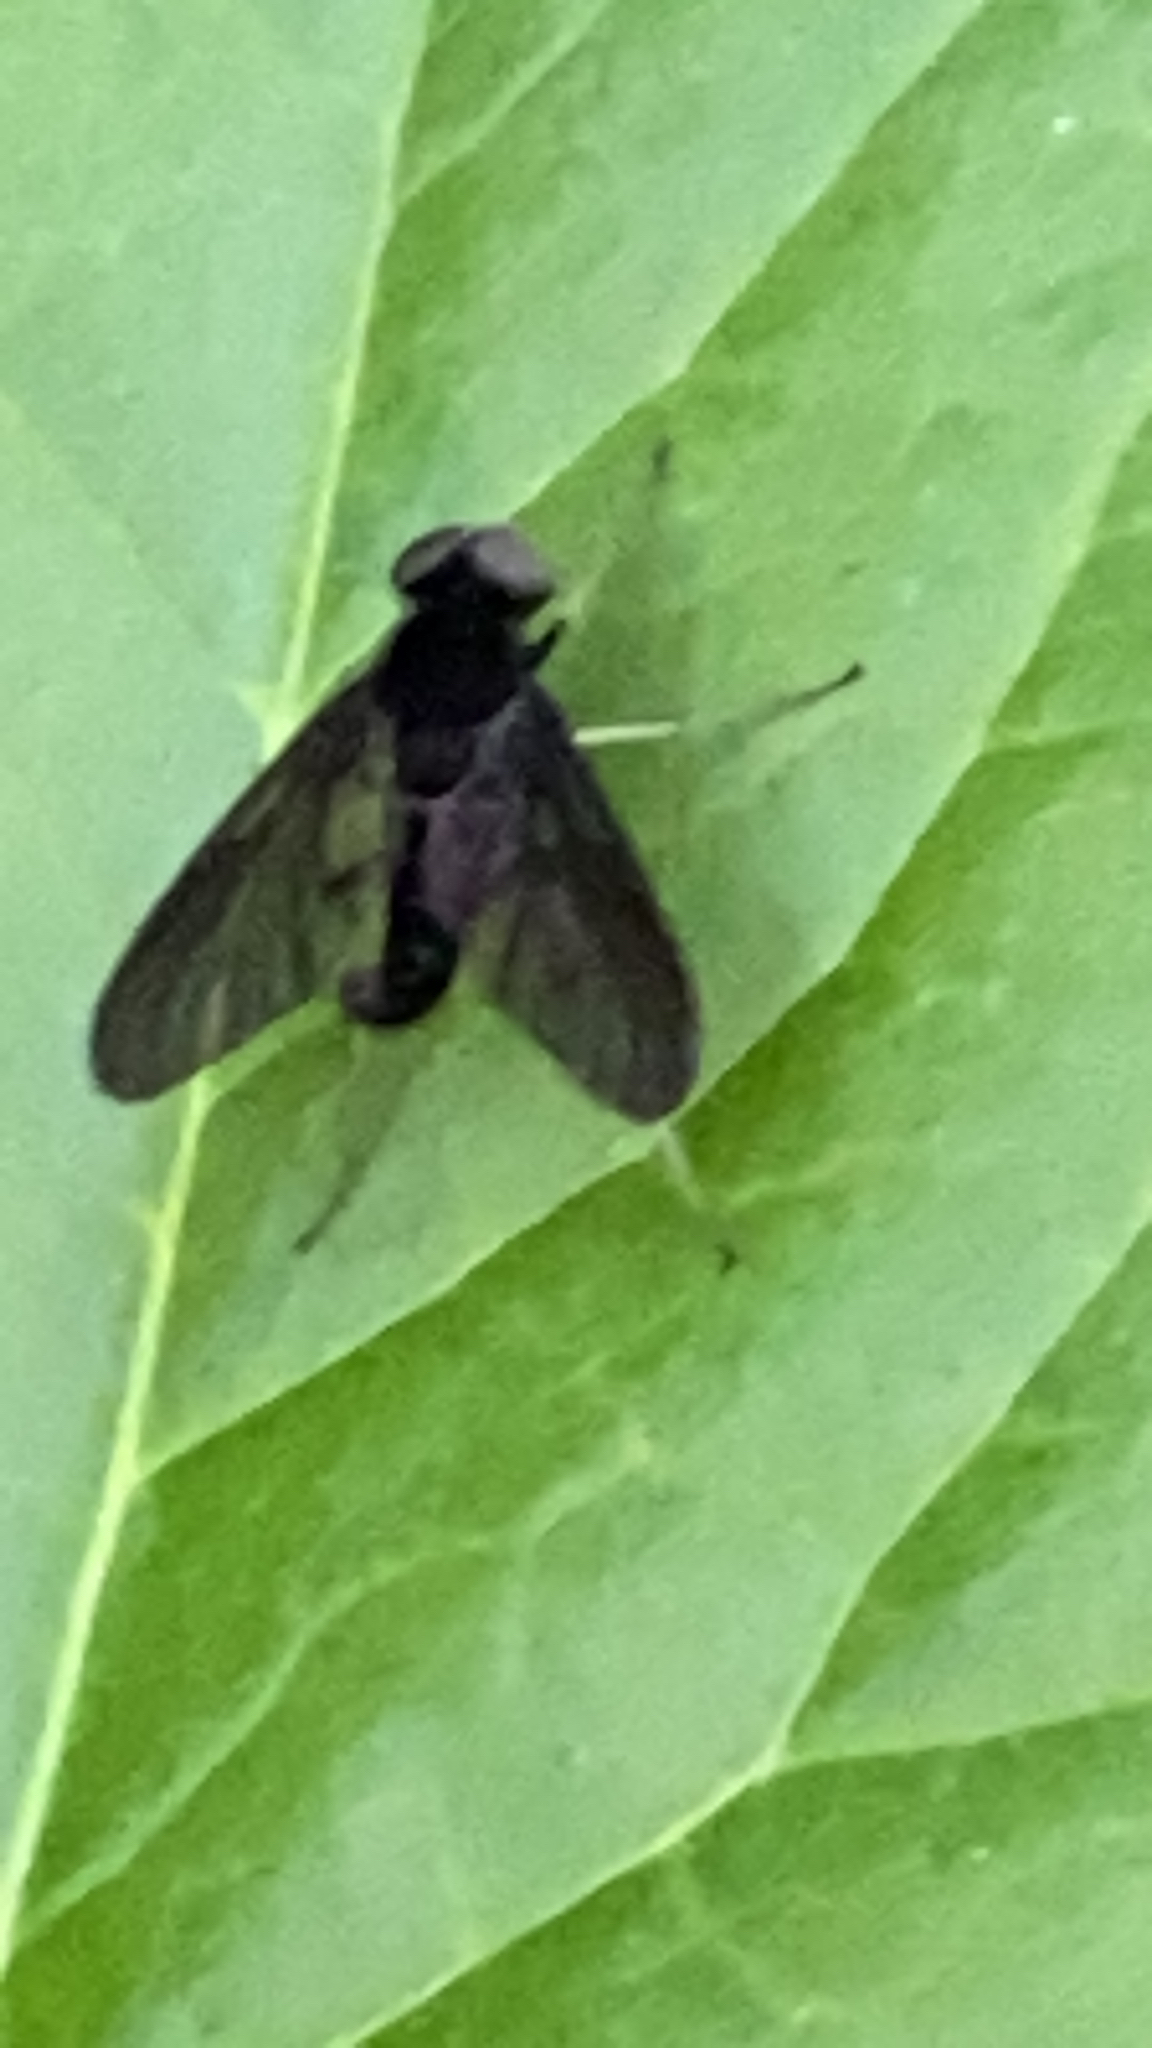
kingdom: Animalia
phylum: Arthropoda
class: Insecta
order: Diptera
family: Rhagionidae
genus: Chrysopilus
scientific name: Chrysopilus velutinus
